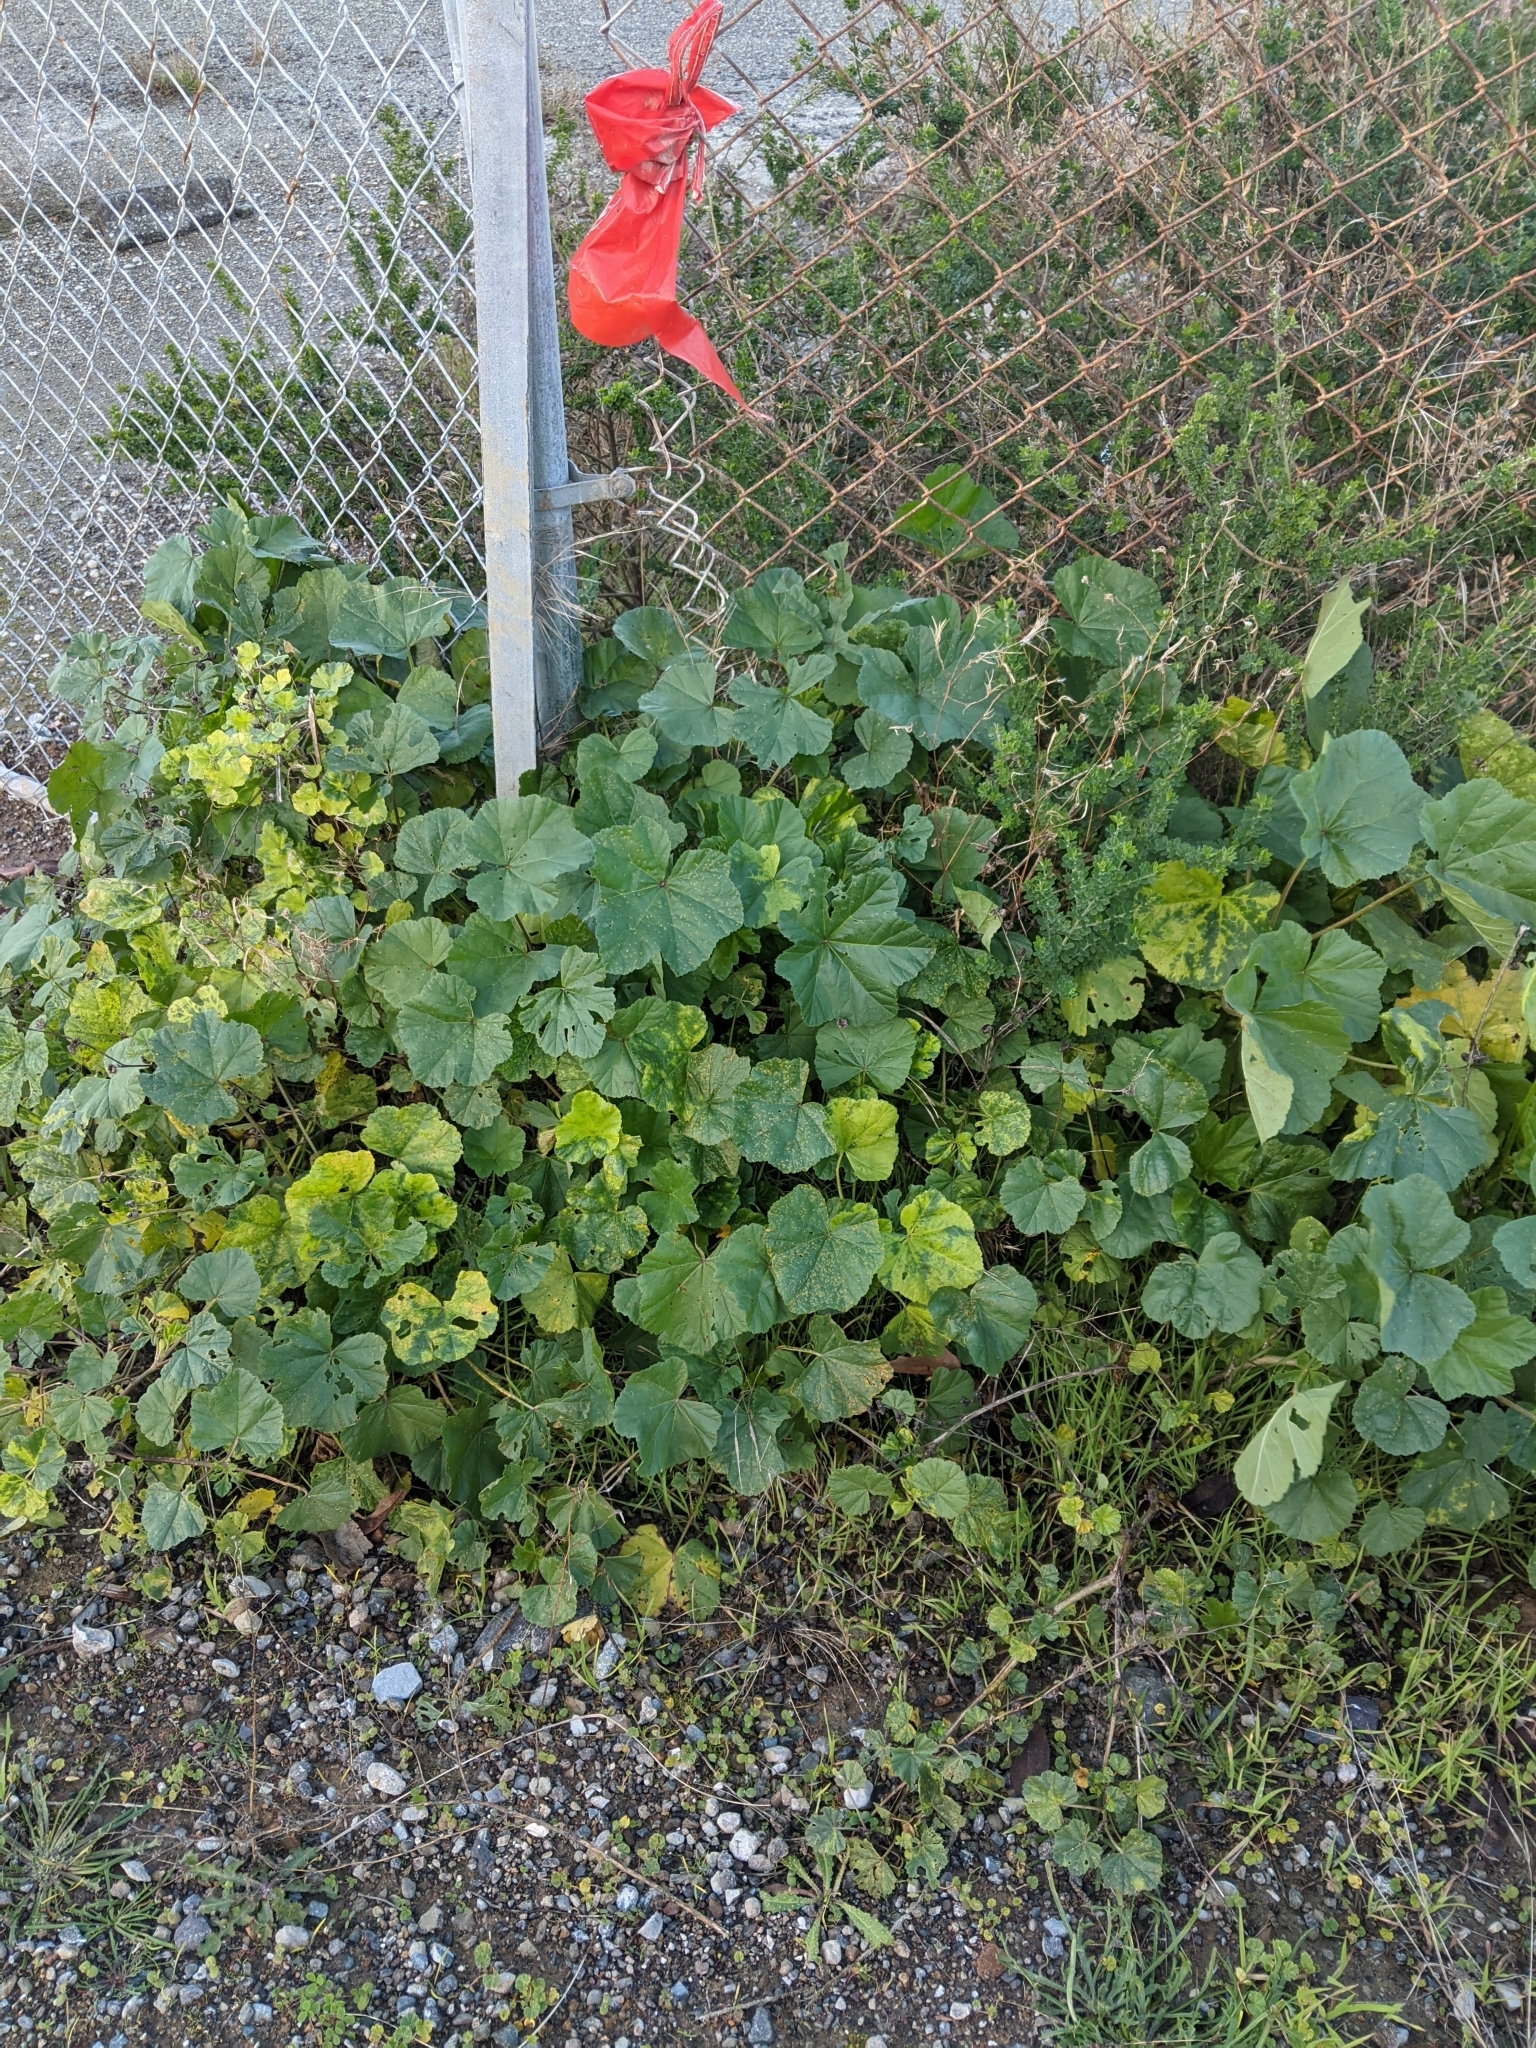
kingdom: Plantae
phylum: Tracheophyta
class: Magnoliopsida
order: Malvales
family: Malvaceae
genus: Malva
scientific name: Malva
